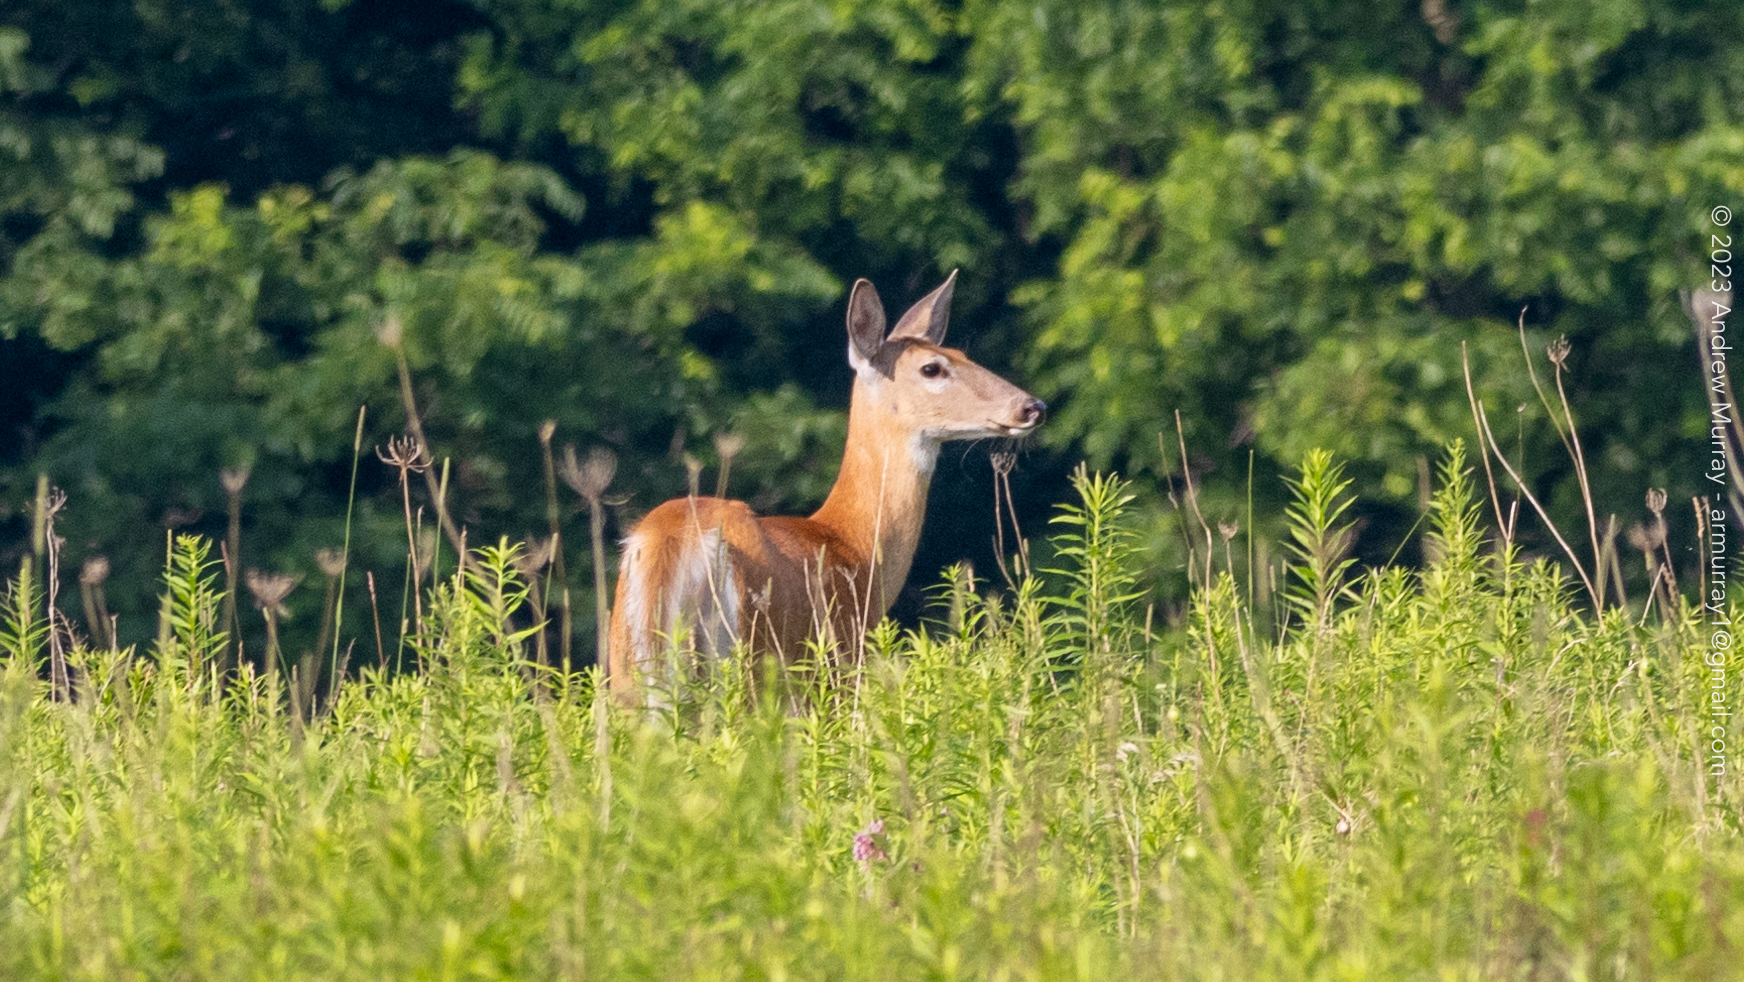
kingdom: Animalia
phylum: Chordata
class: Mammalia
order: Artiodactyla
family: Cervidae
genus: Odocoileus
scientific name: Odocoileus virginianus
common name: White-tailed deer
